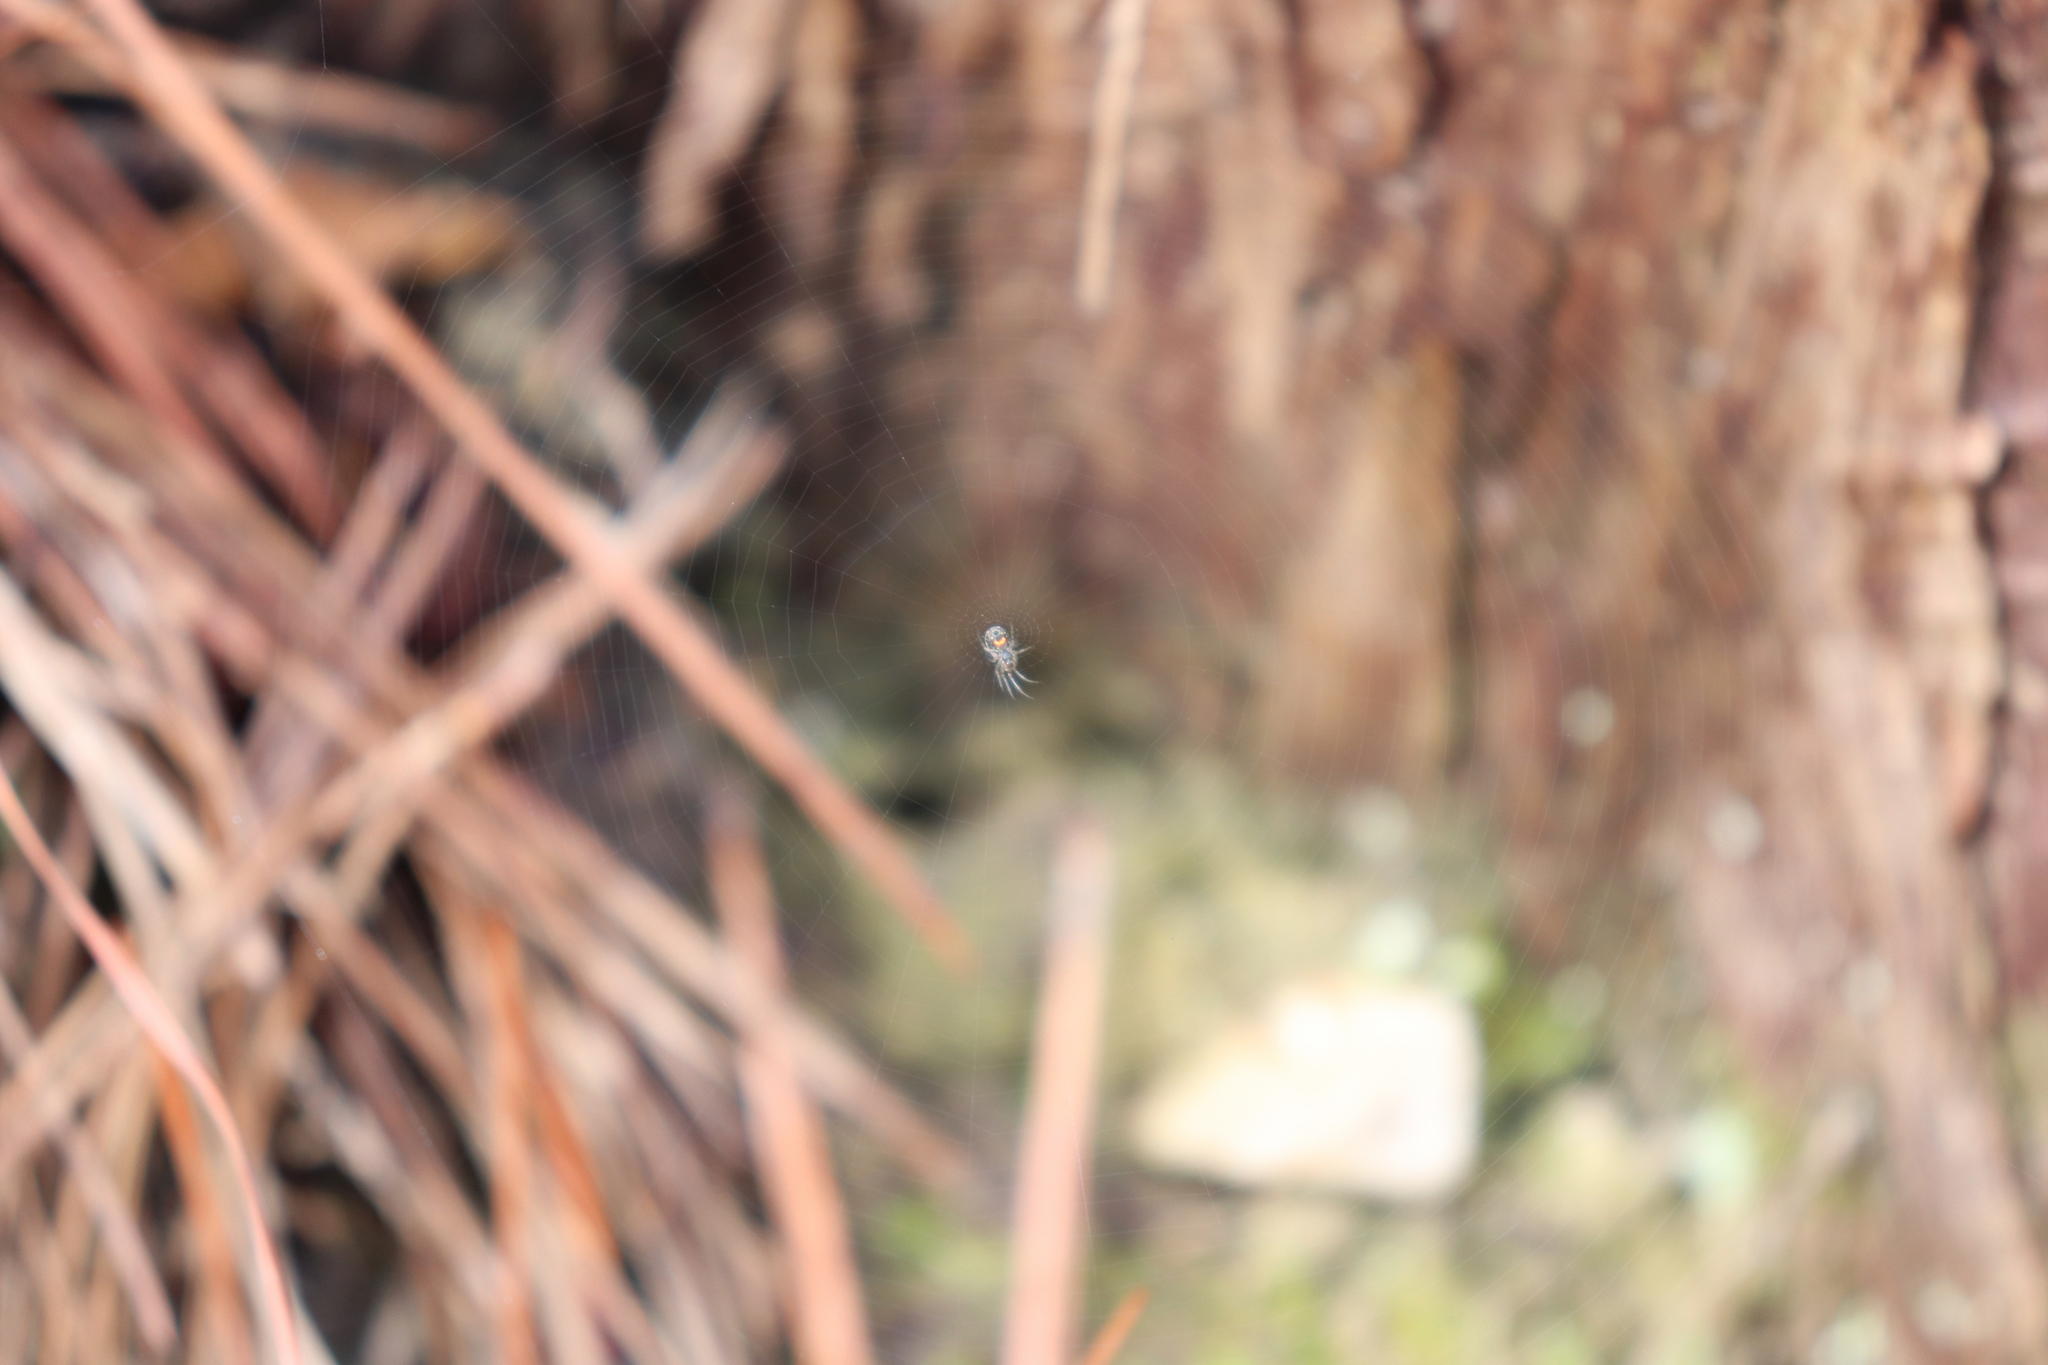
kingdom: Animalia
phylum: Arthropoda
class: Arachnida
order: Araneae
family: Tetragnathidae
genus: Leucauge
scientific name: Leucauge
